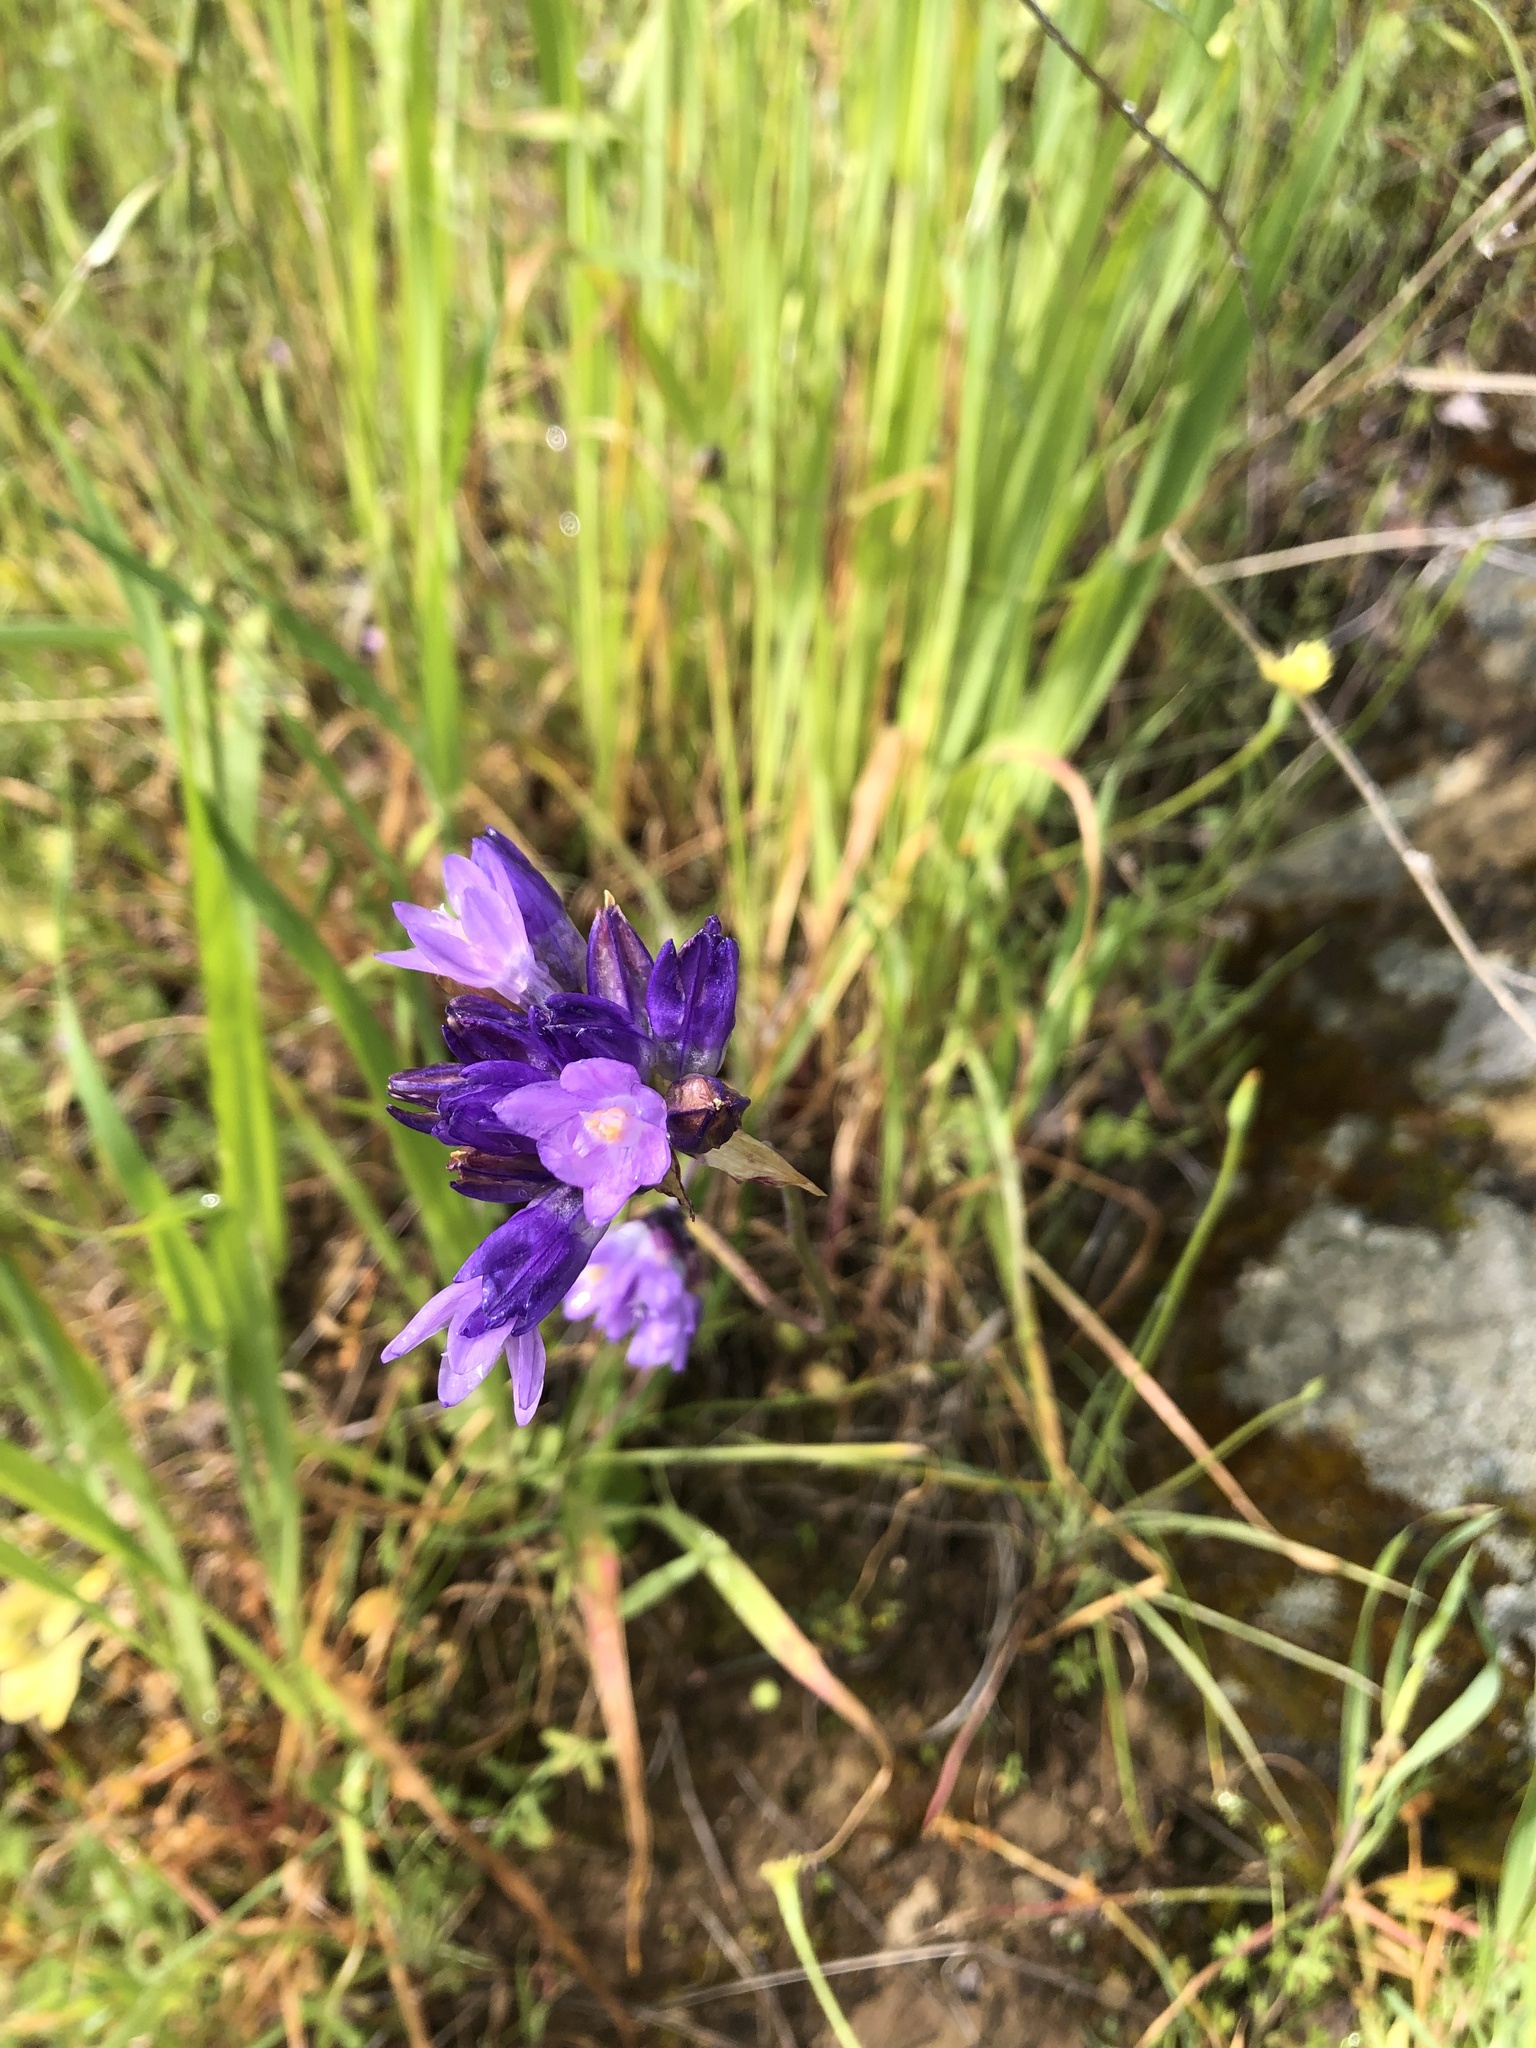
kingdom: Plantae
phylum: Tracheophyta
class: Liliopsida
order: Asparagales
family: Asparagaceae
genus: Dipterostemon
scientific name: Dipterostemon capitatus
